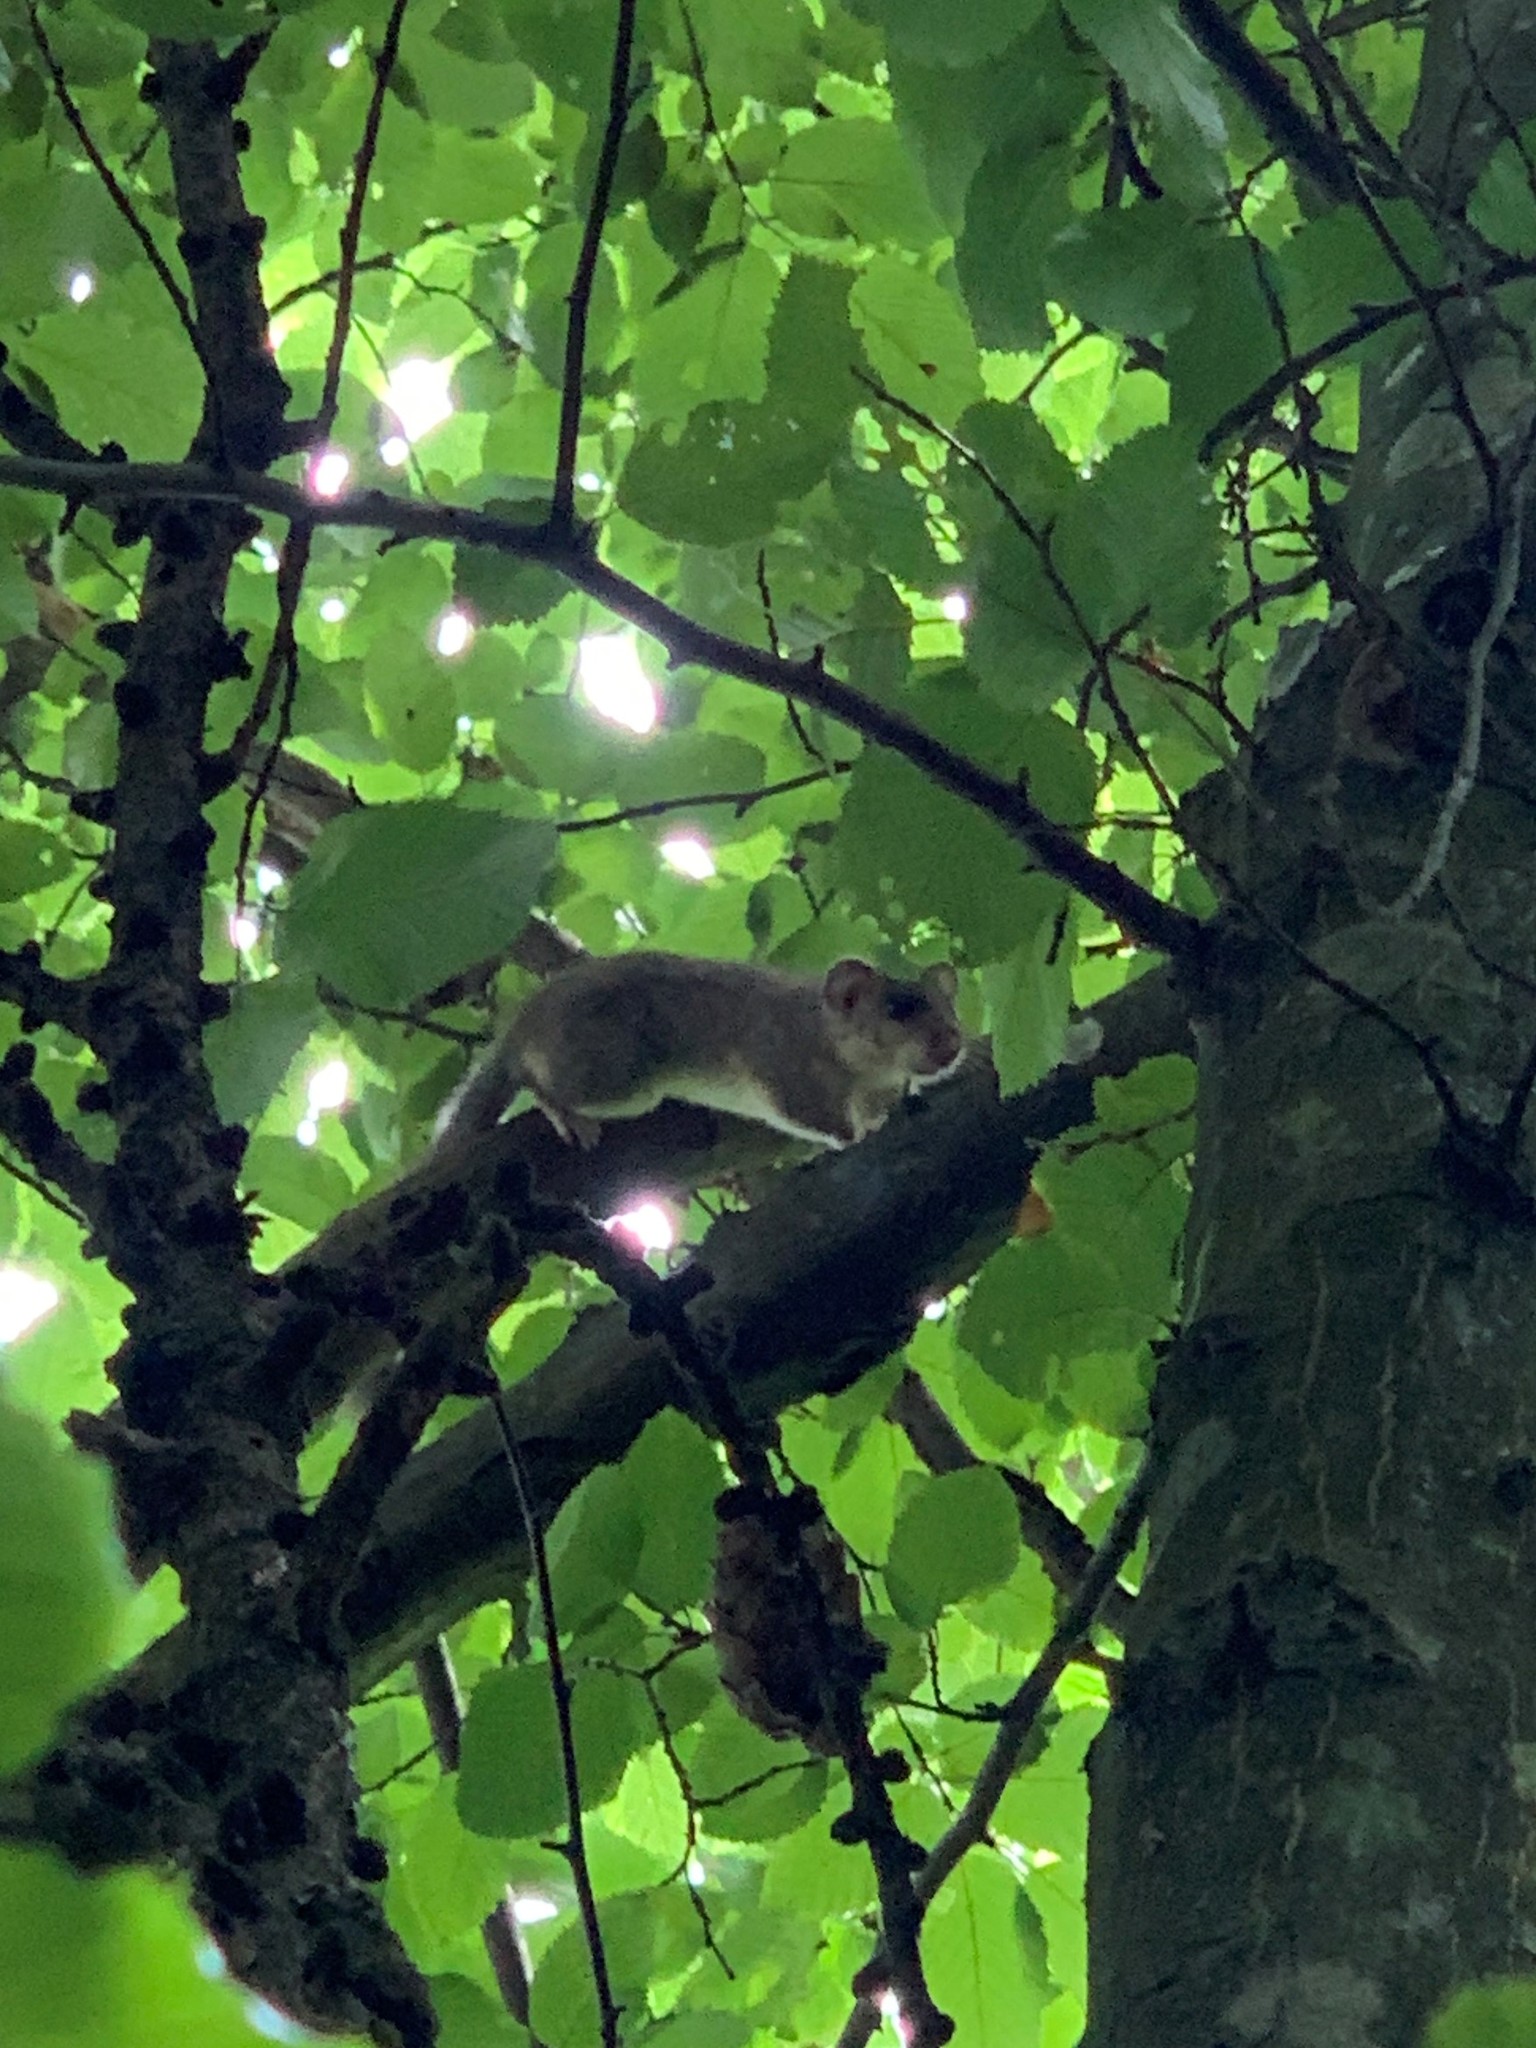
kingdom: Animalia
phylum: Chordata
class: Mammalia
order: Rodentia
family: Gliridae
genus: Glis
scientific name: Glis glis
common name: Fat dormouse
